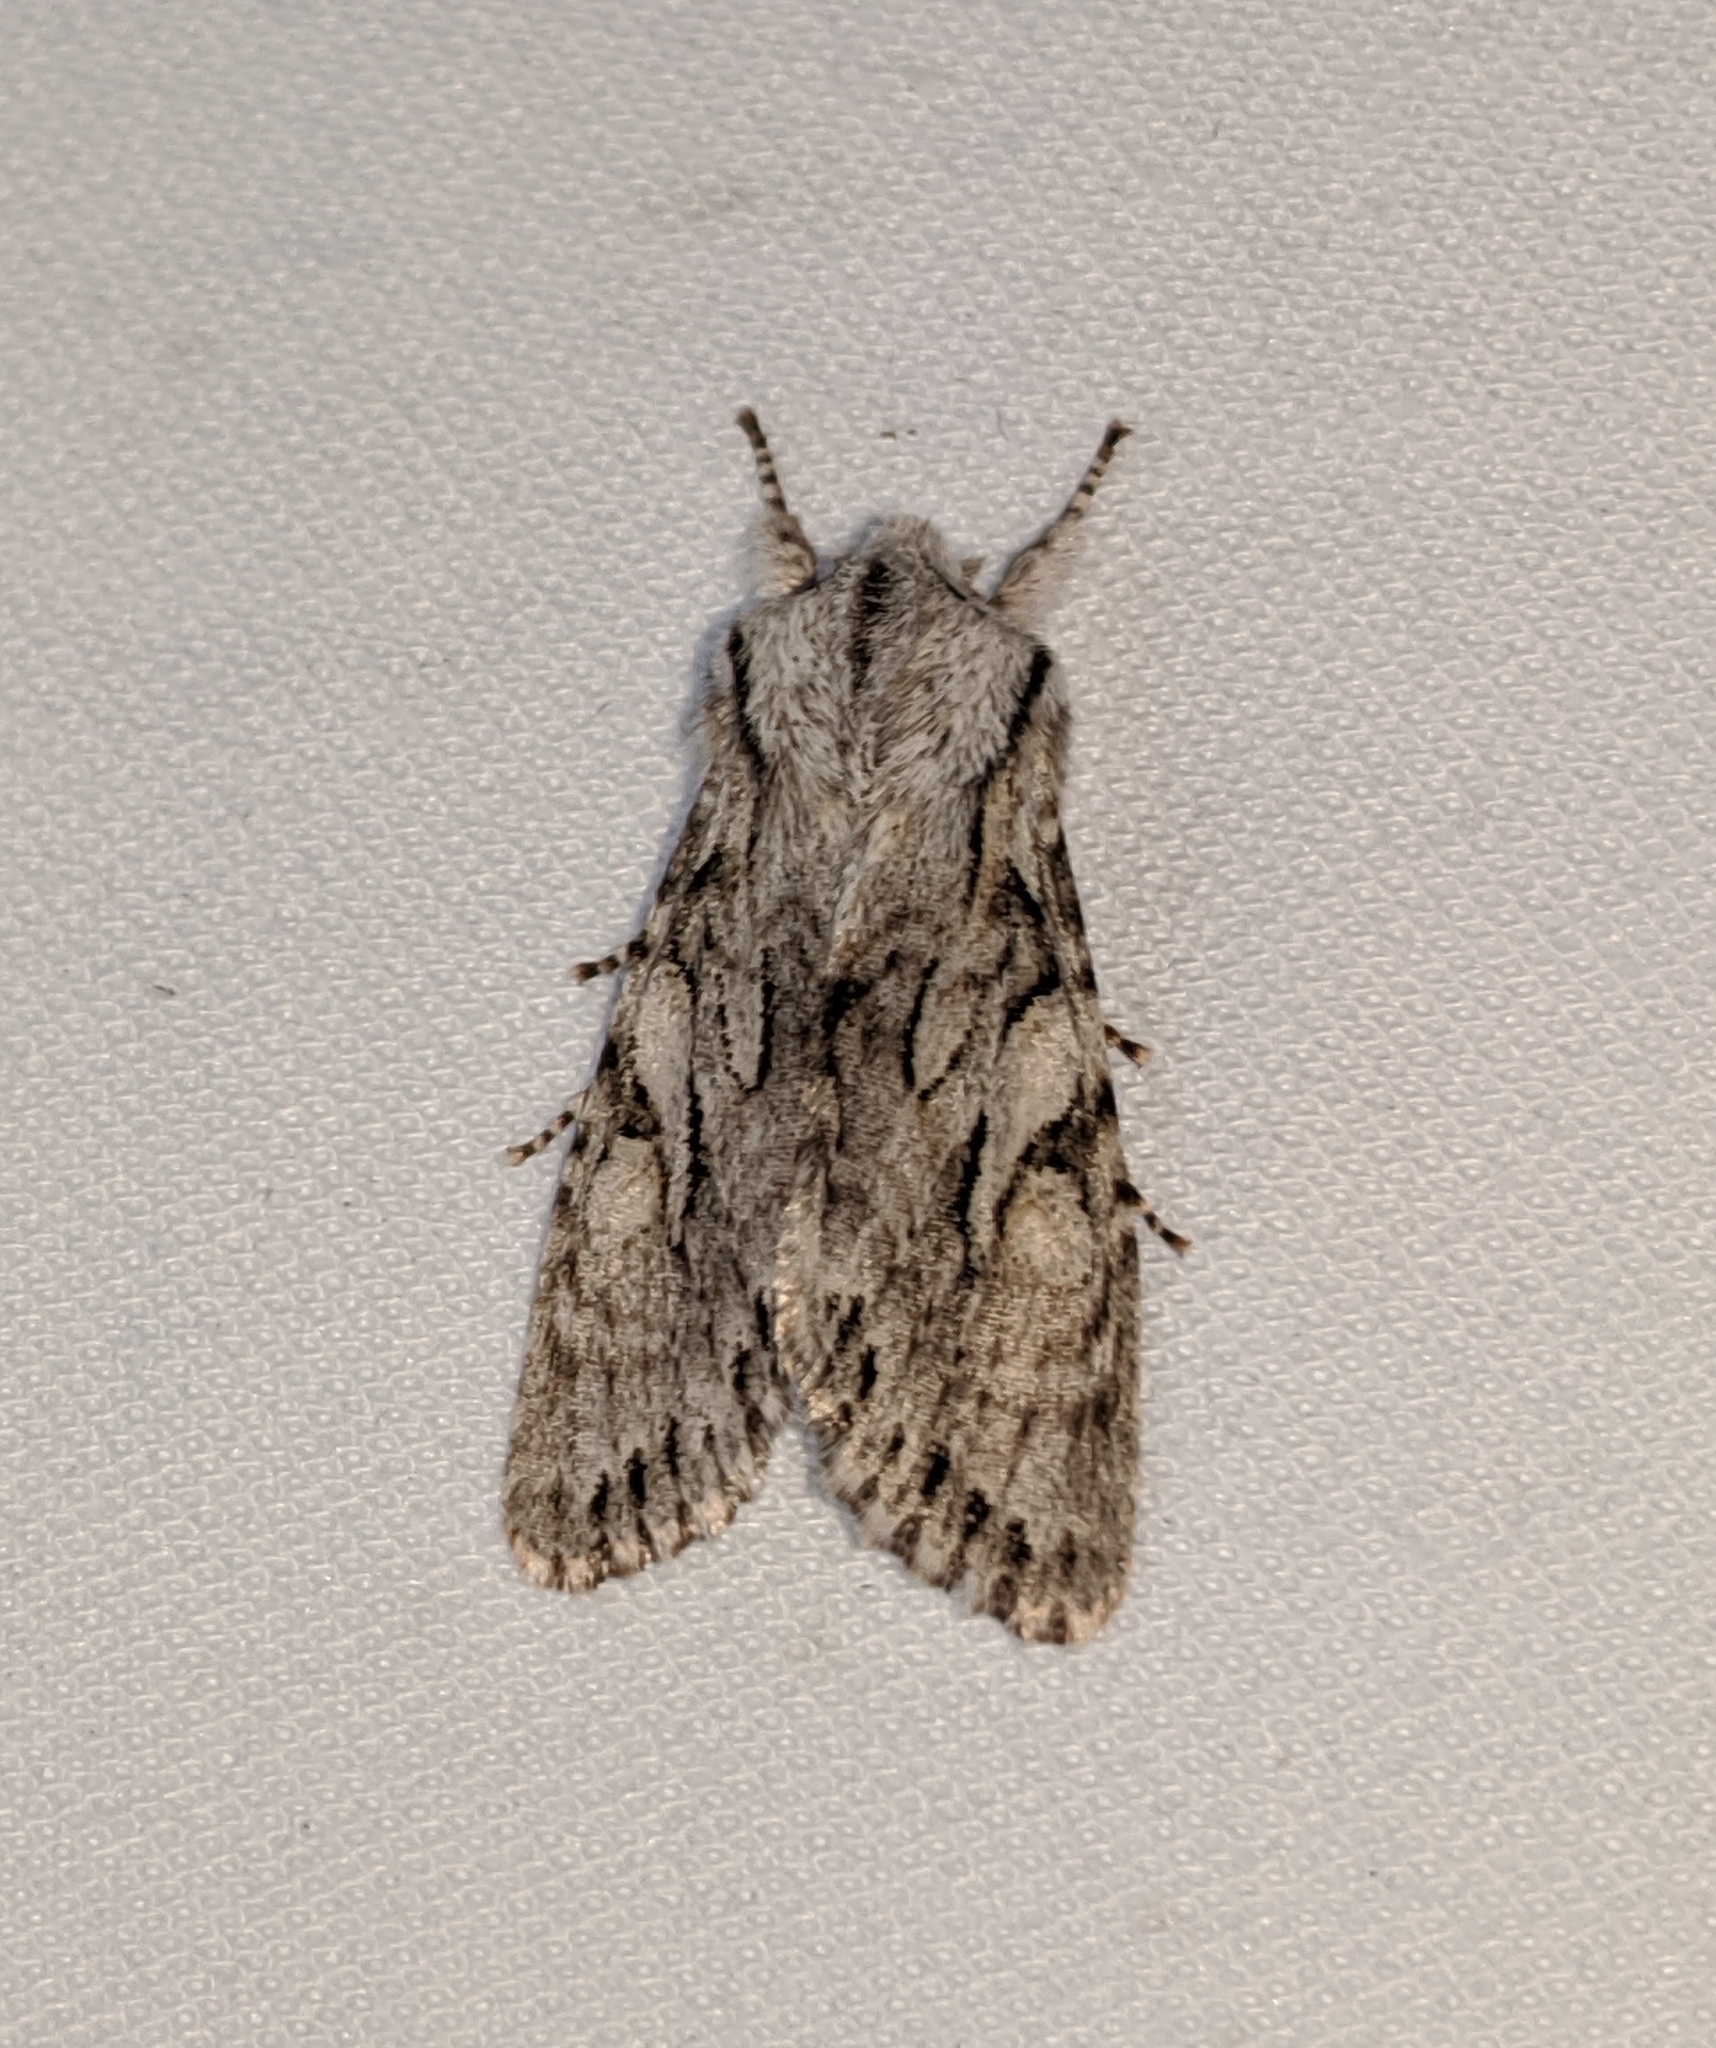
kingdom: Animalia
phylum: Arthropoda
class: Insecta
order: Lepidoptera
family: Noctuidae
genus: Egira
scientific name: Egira simplex
